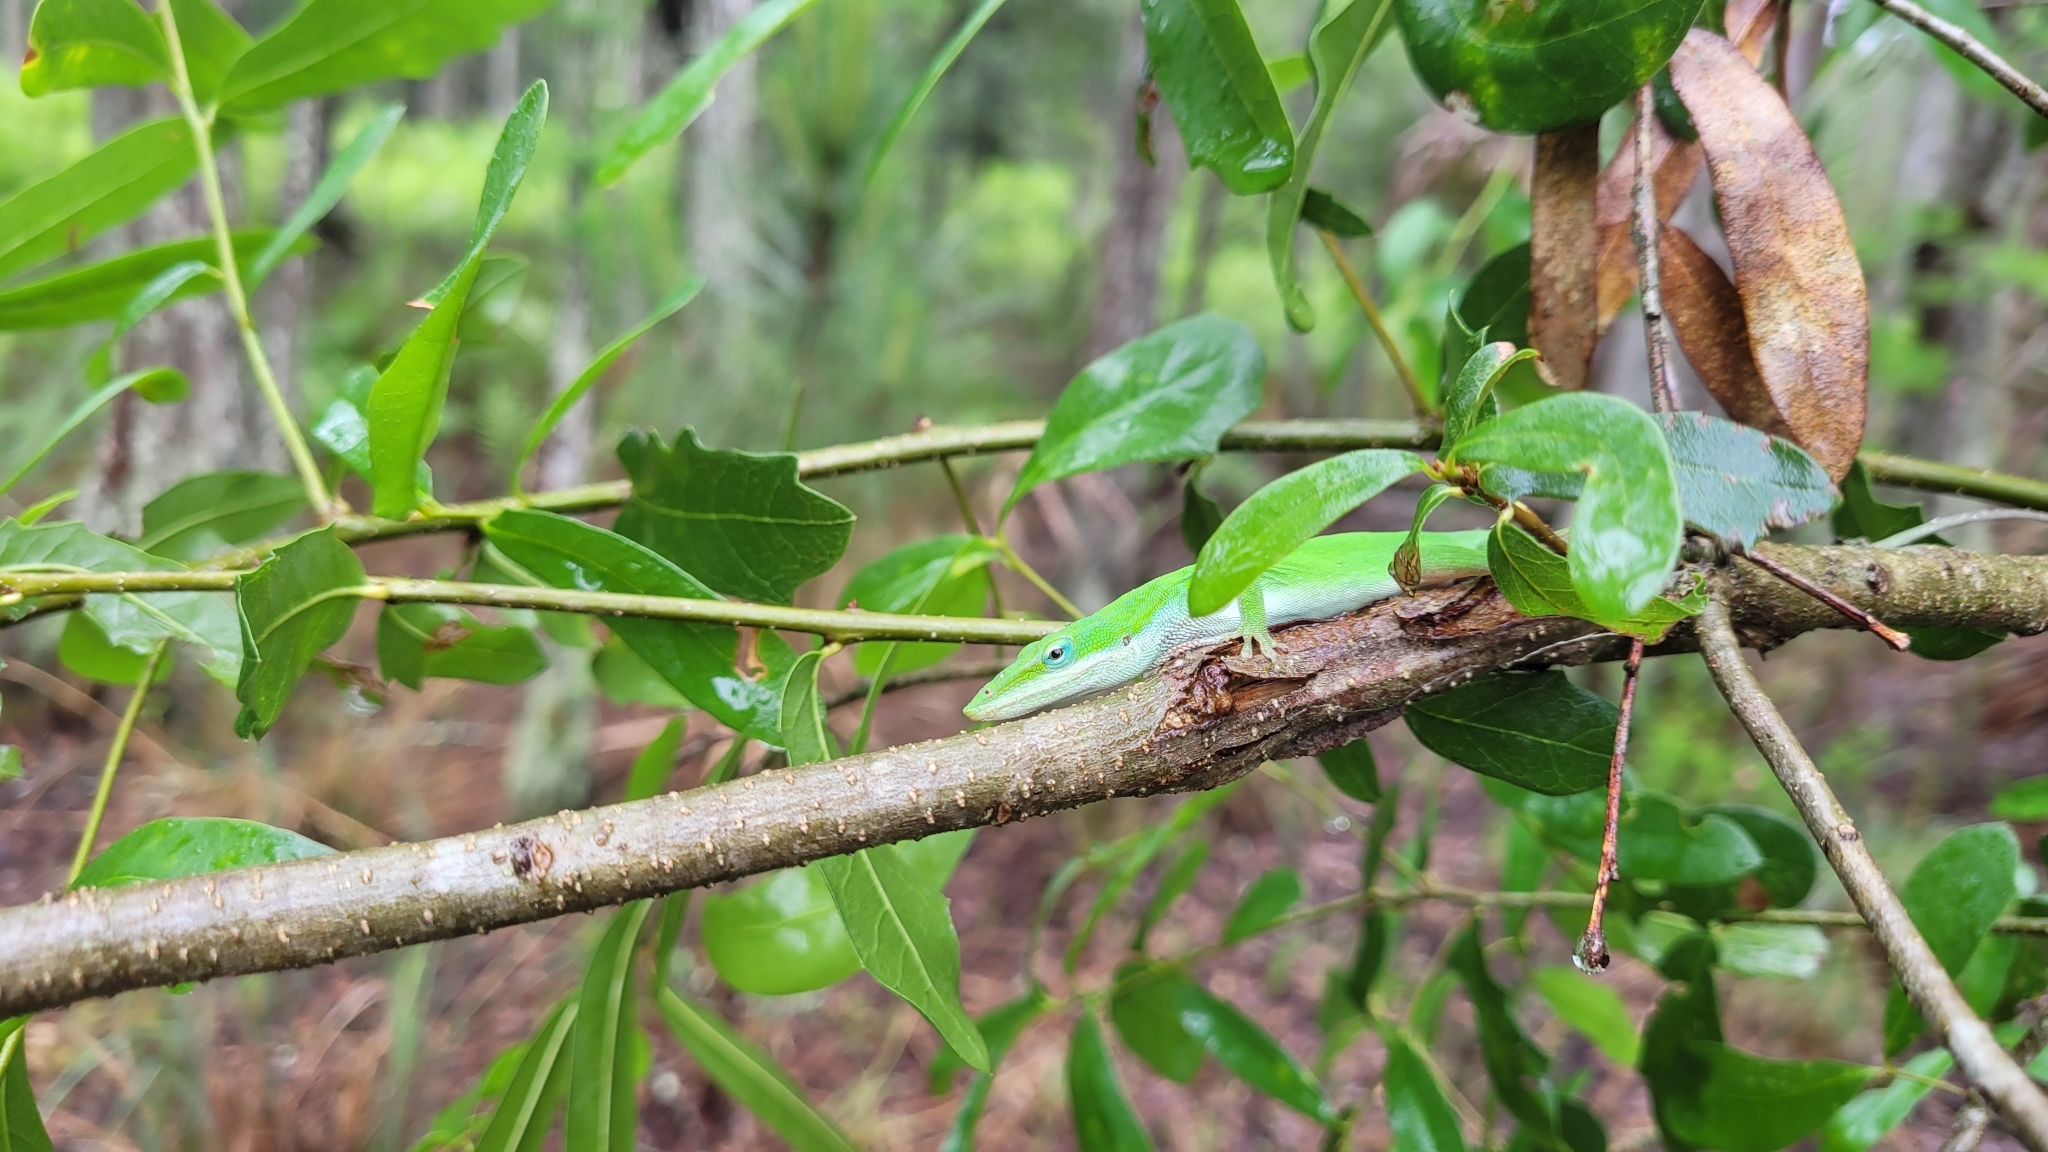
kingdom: Animalia
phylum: Chordata
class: Squamata
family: Dactyloidae
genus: Anolis
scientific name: Anolis carolinensis
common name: Green anole
